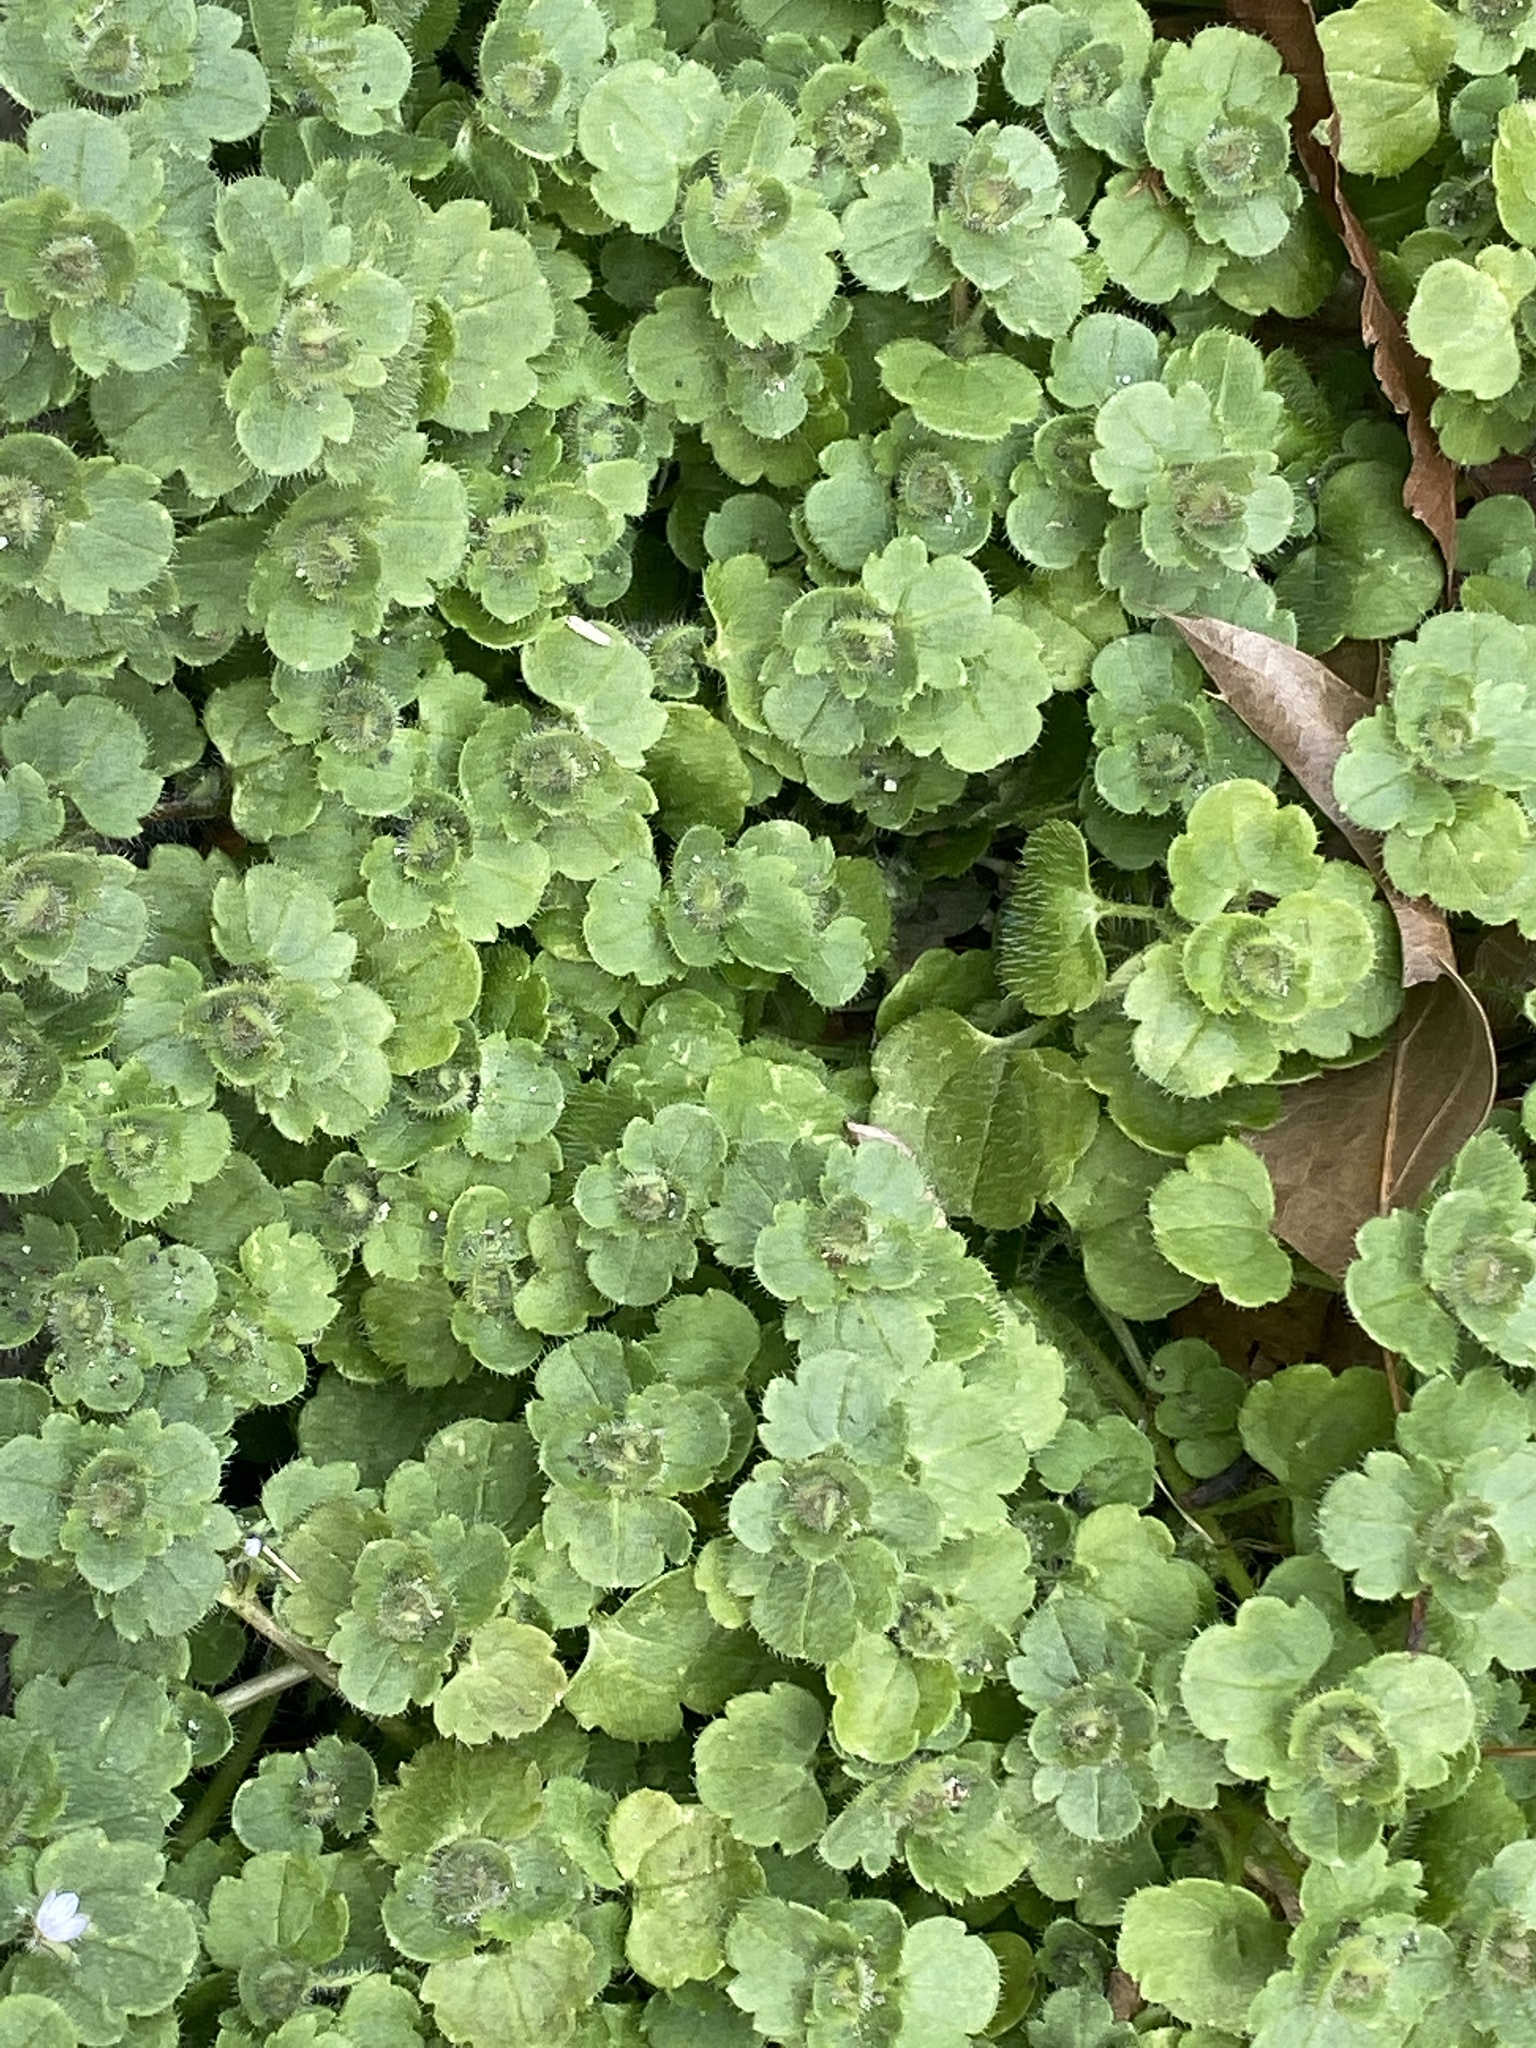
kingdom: Plantae
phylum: Tracheophyta
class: Magnoliopsida
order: Lamiales
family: Plantaginaceae
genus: Veronica
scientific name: Veronica hederifolia
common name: Ivy-leaved speedwell
